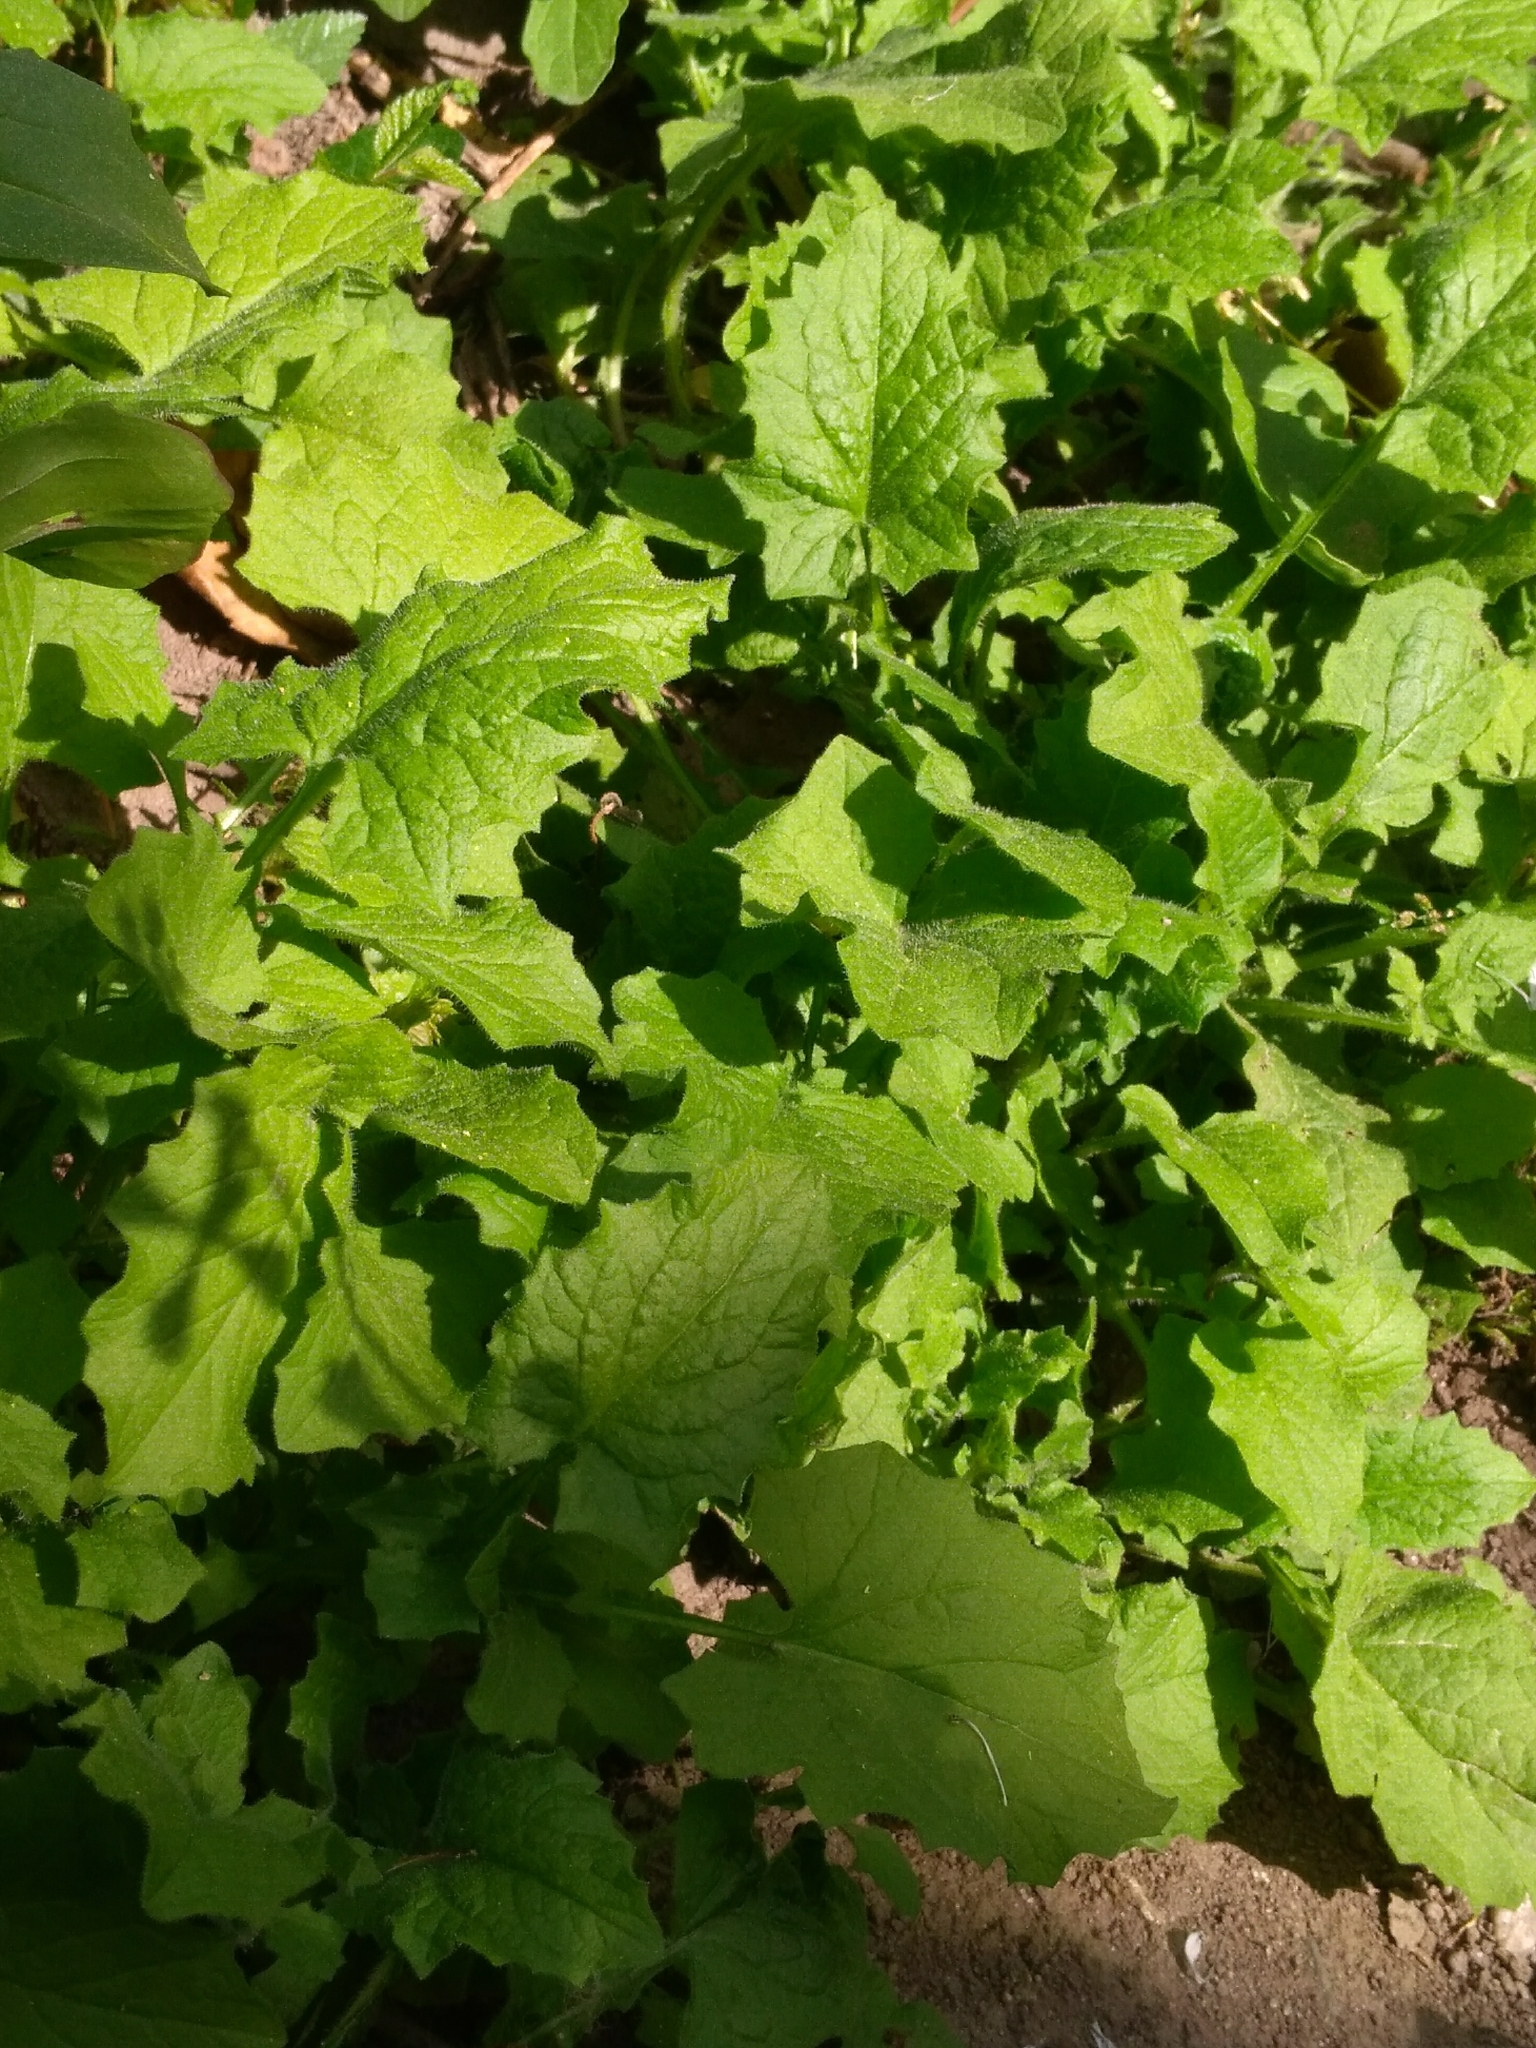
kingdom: Plantae
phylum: Tracheophyta
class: Magnoliopsida
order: Asterales
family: Asteraceae
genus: Lapsana
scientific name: Lapsana communis
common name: Nipplewort
